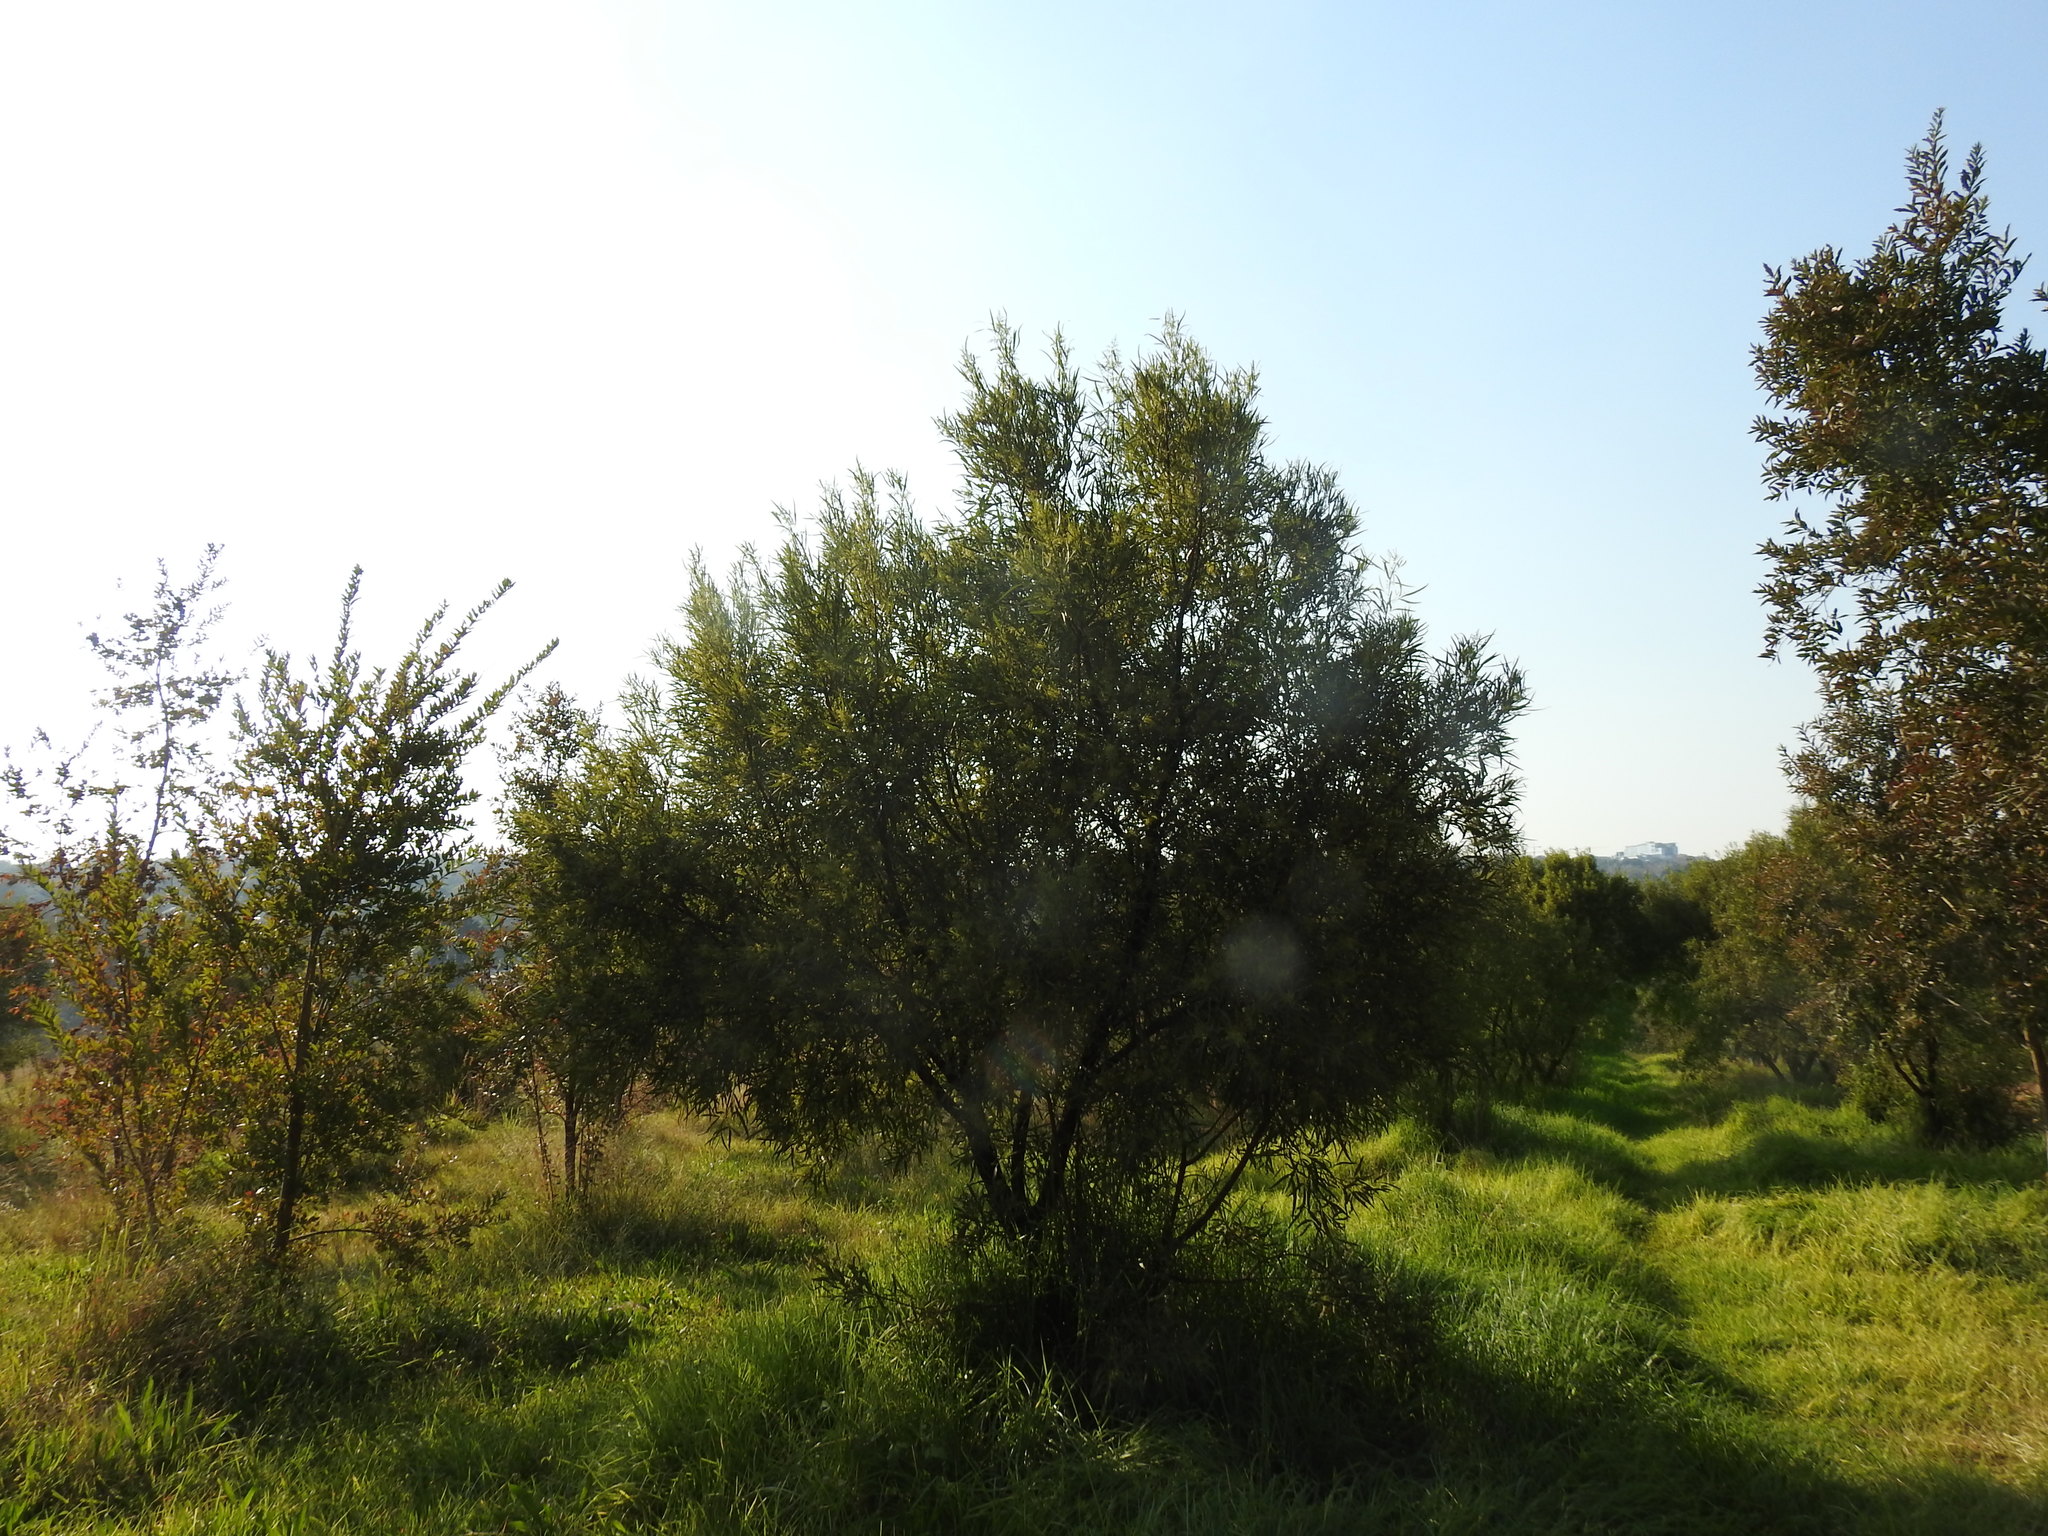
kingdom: Plantae
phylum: Tracheophyta
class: Magnoliopsida
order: Sapindales
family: Anacardiaceae
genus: Searsia
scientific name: Searsia lancea
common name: Cashew
